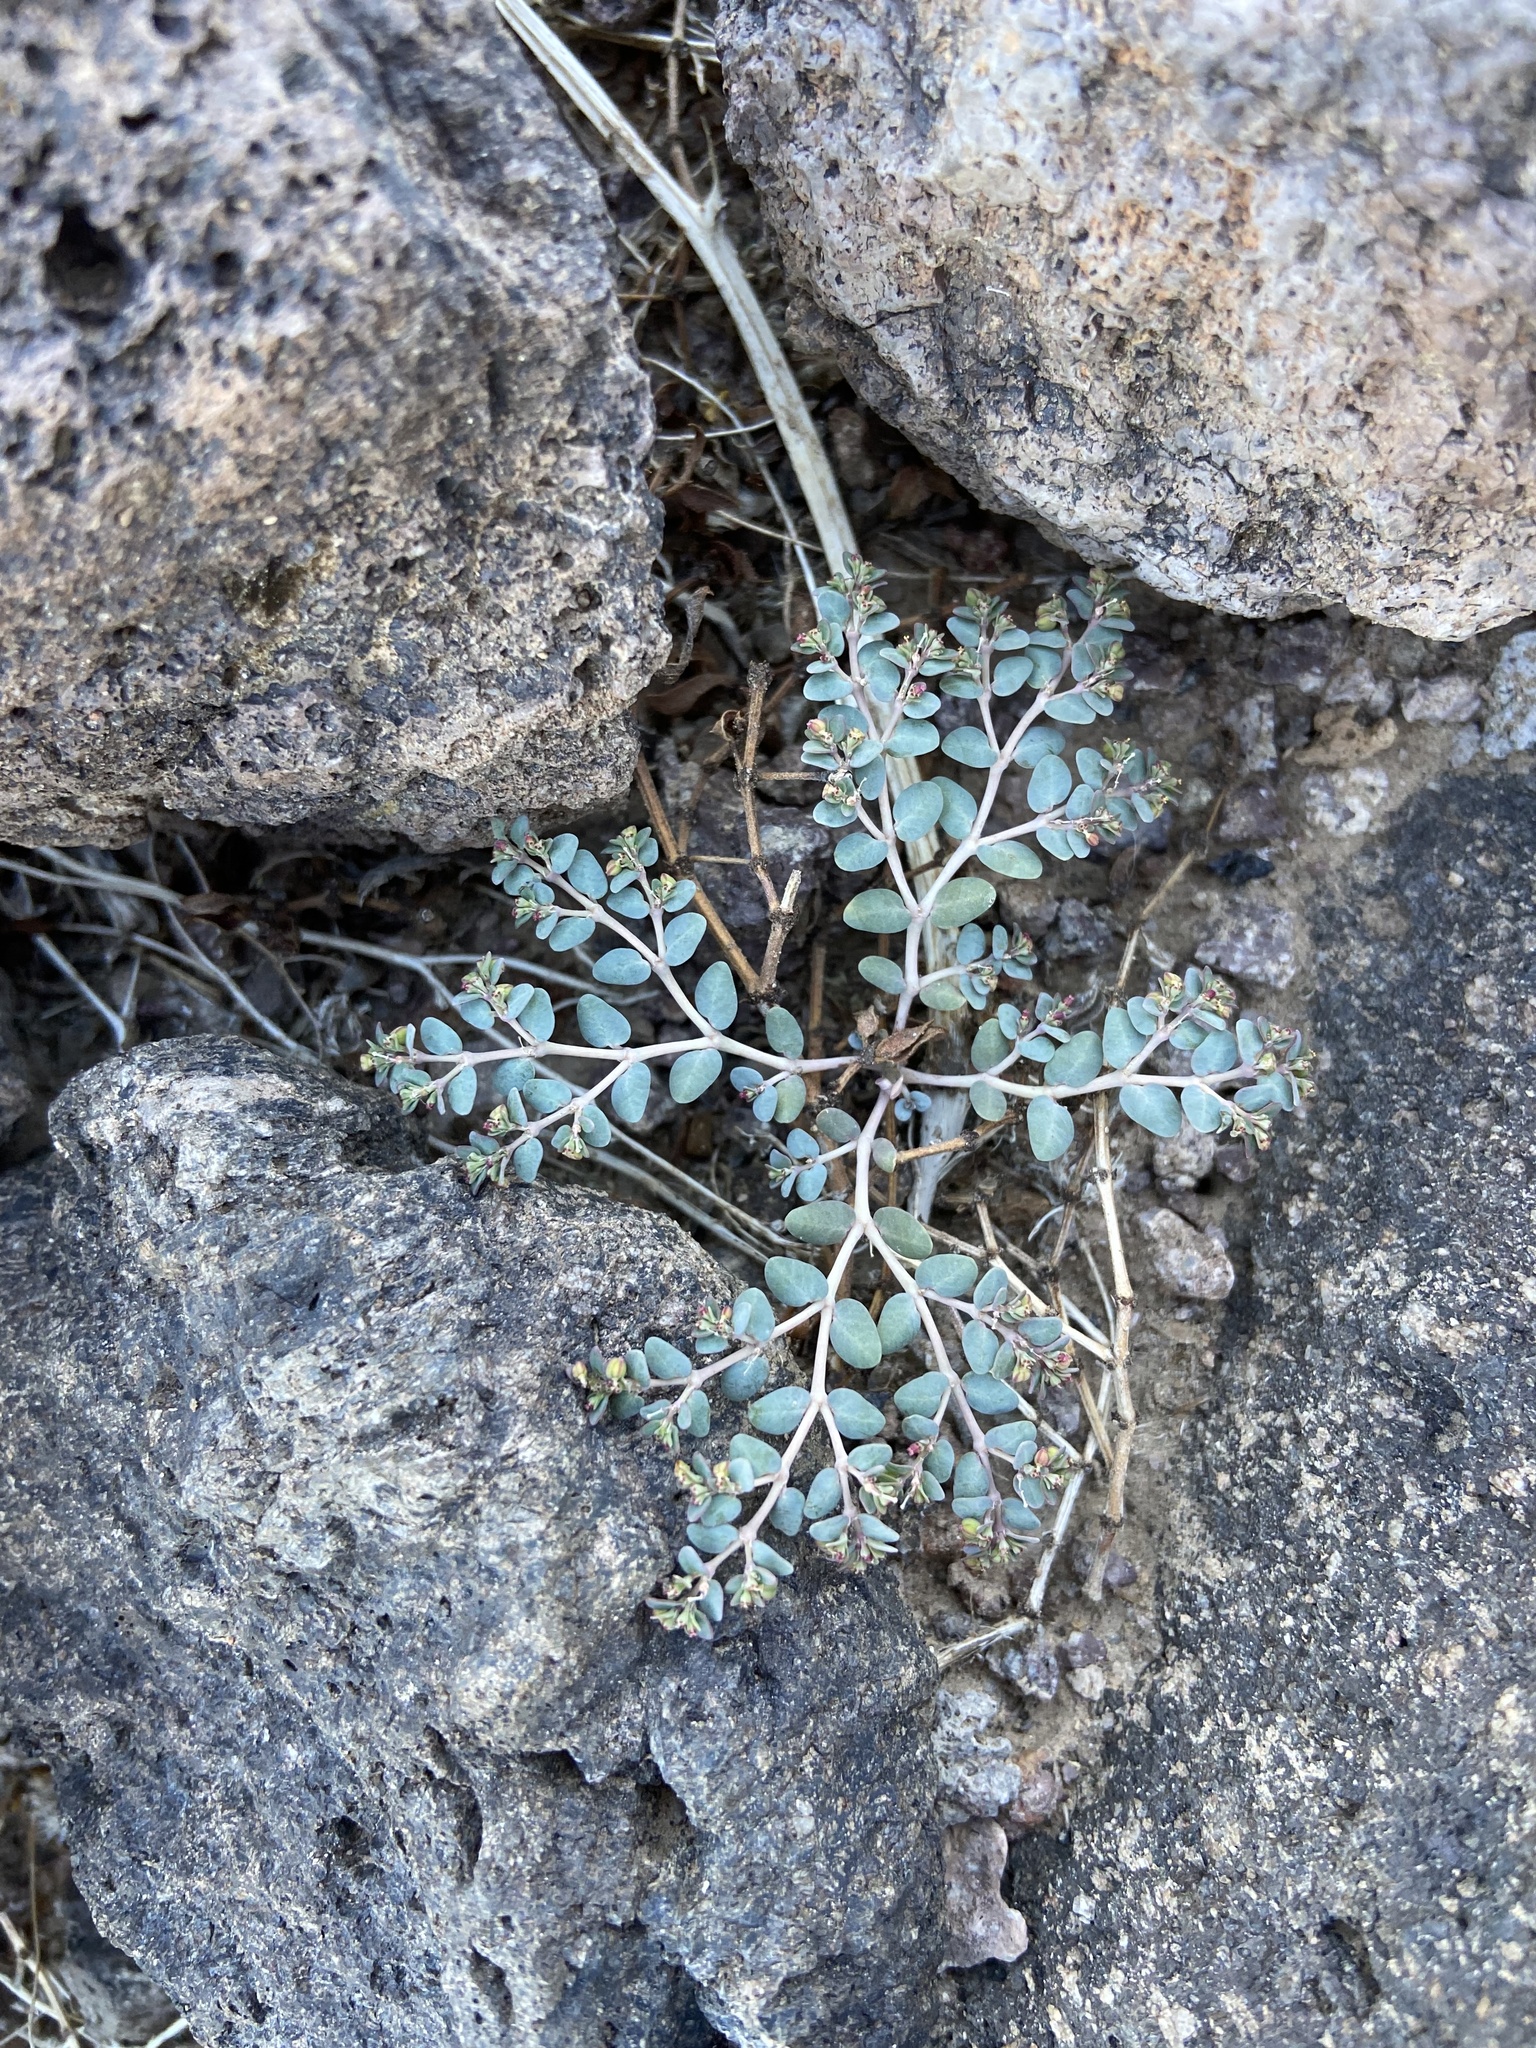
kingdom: Plantae
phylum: Tracheophyta
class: Magnoliopsida
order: Malpighiales
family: Euphorbiaceae
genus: Euphorbia
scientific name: Euphorbia micromera
